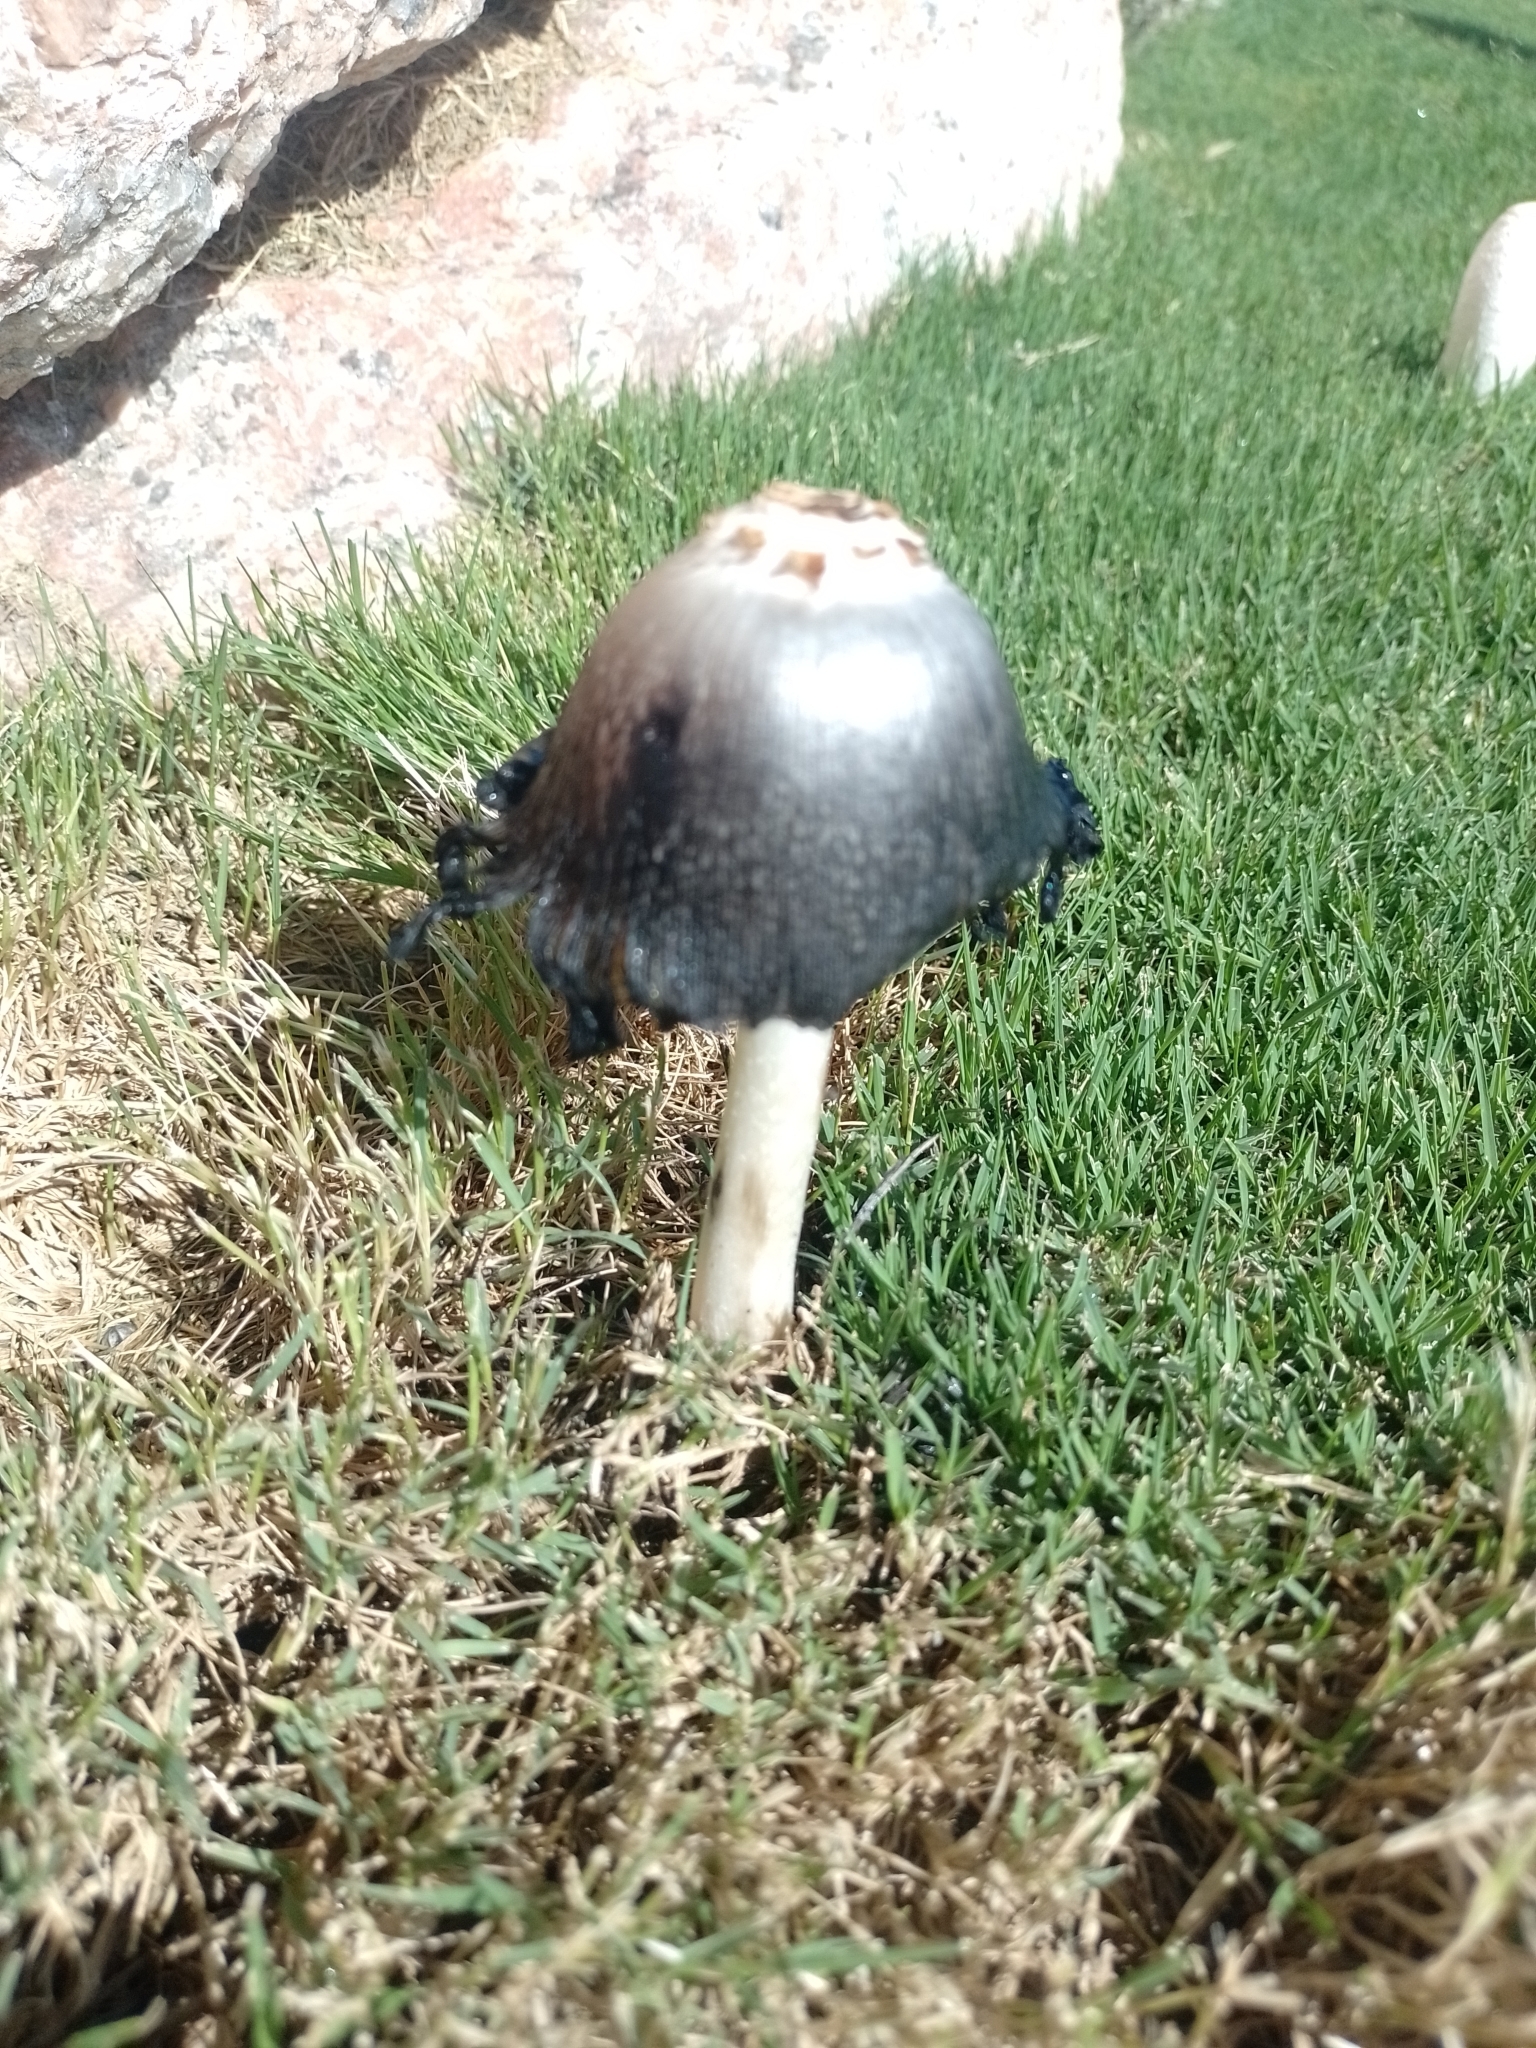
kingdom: Fungi
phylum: Basidiomycota
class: Agaricomycetes
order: Agaricales
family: Agaricaceae
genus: Coprinus
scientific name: Coprinus comatus
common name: Lawyer's wig
